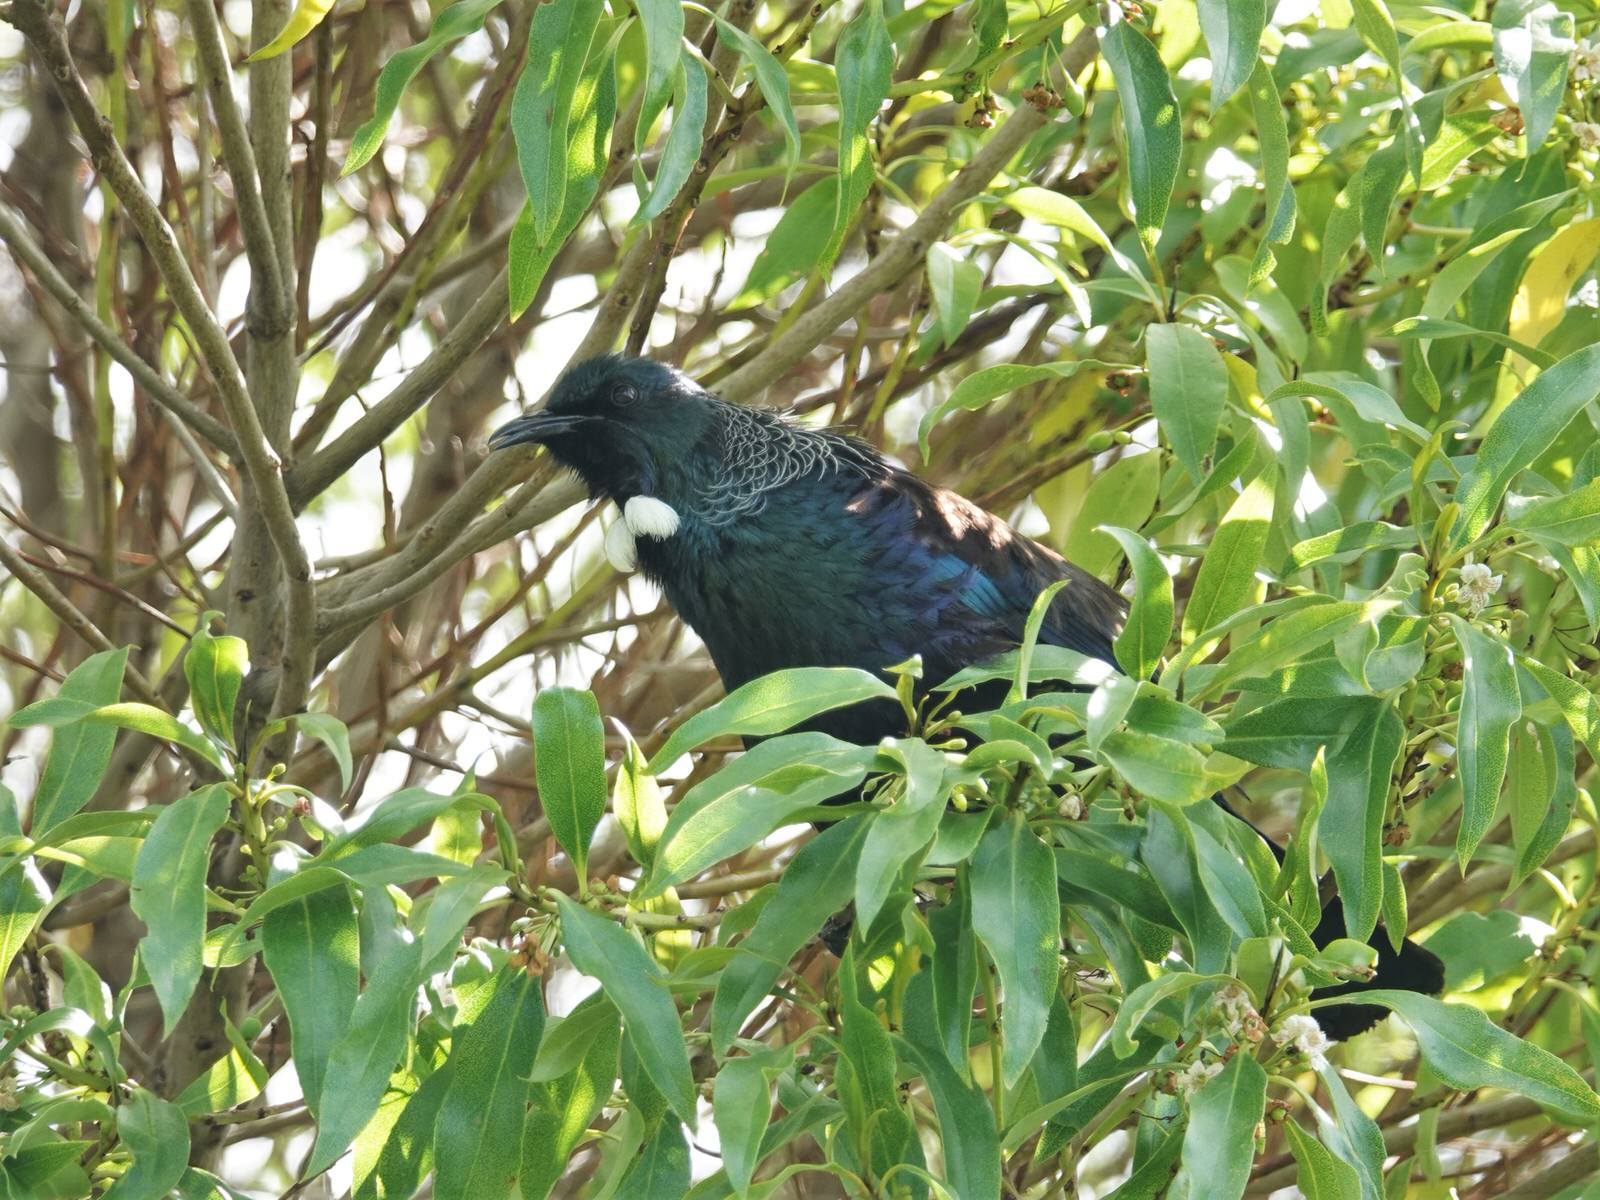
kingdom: Animalia
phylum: Chordata
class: Aves
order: Passeriformes
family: Meliphagidae
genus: Prosthemadera
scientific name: Prosthemadera novaeseelandiae
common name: Tui
